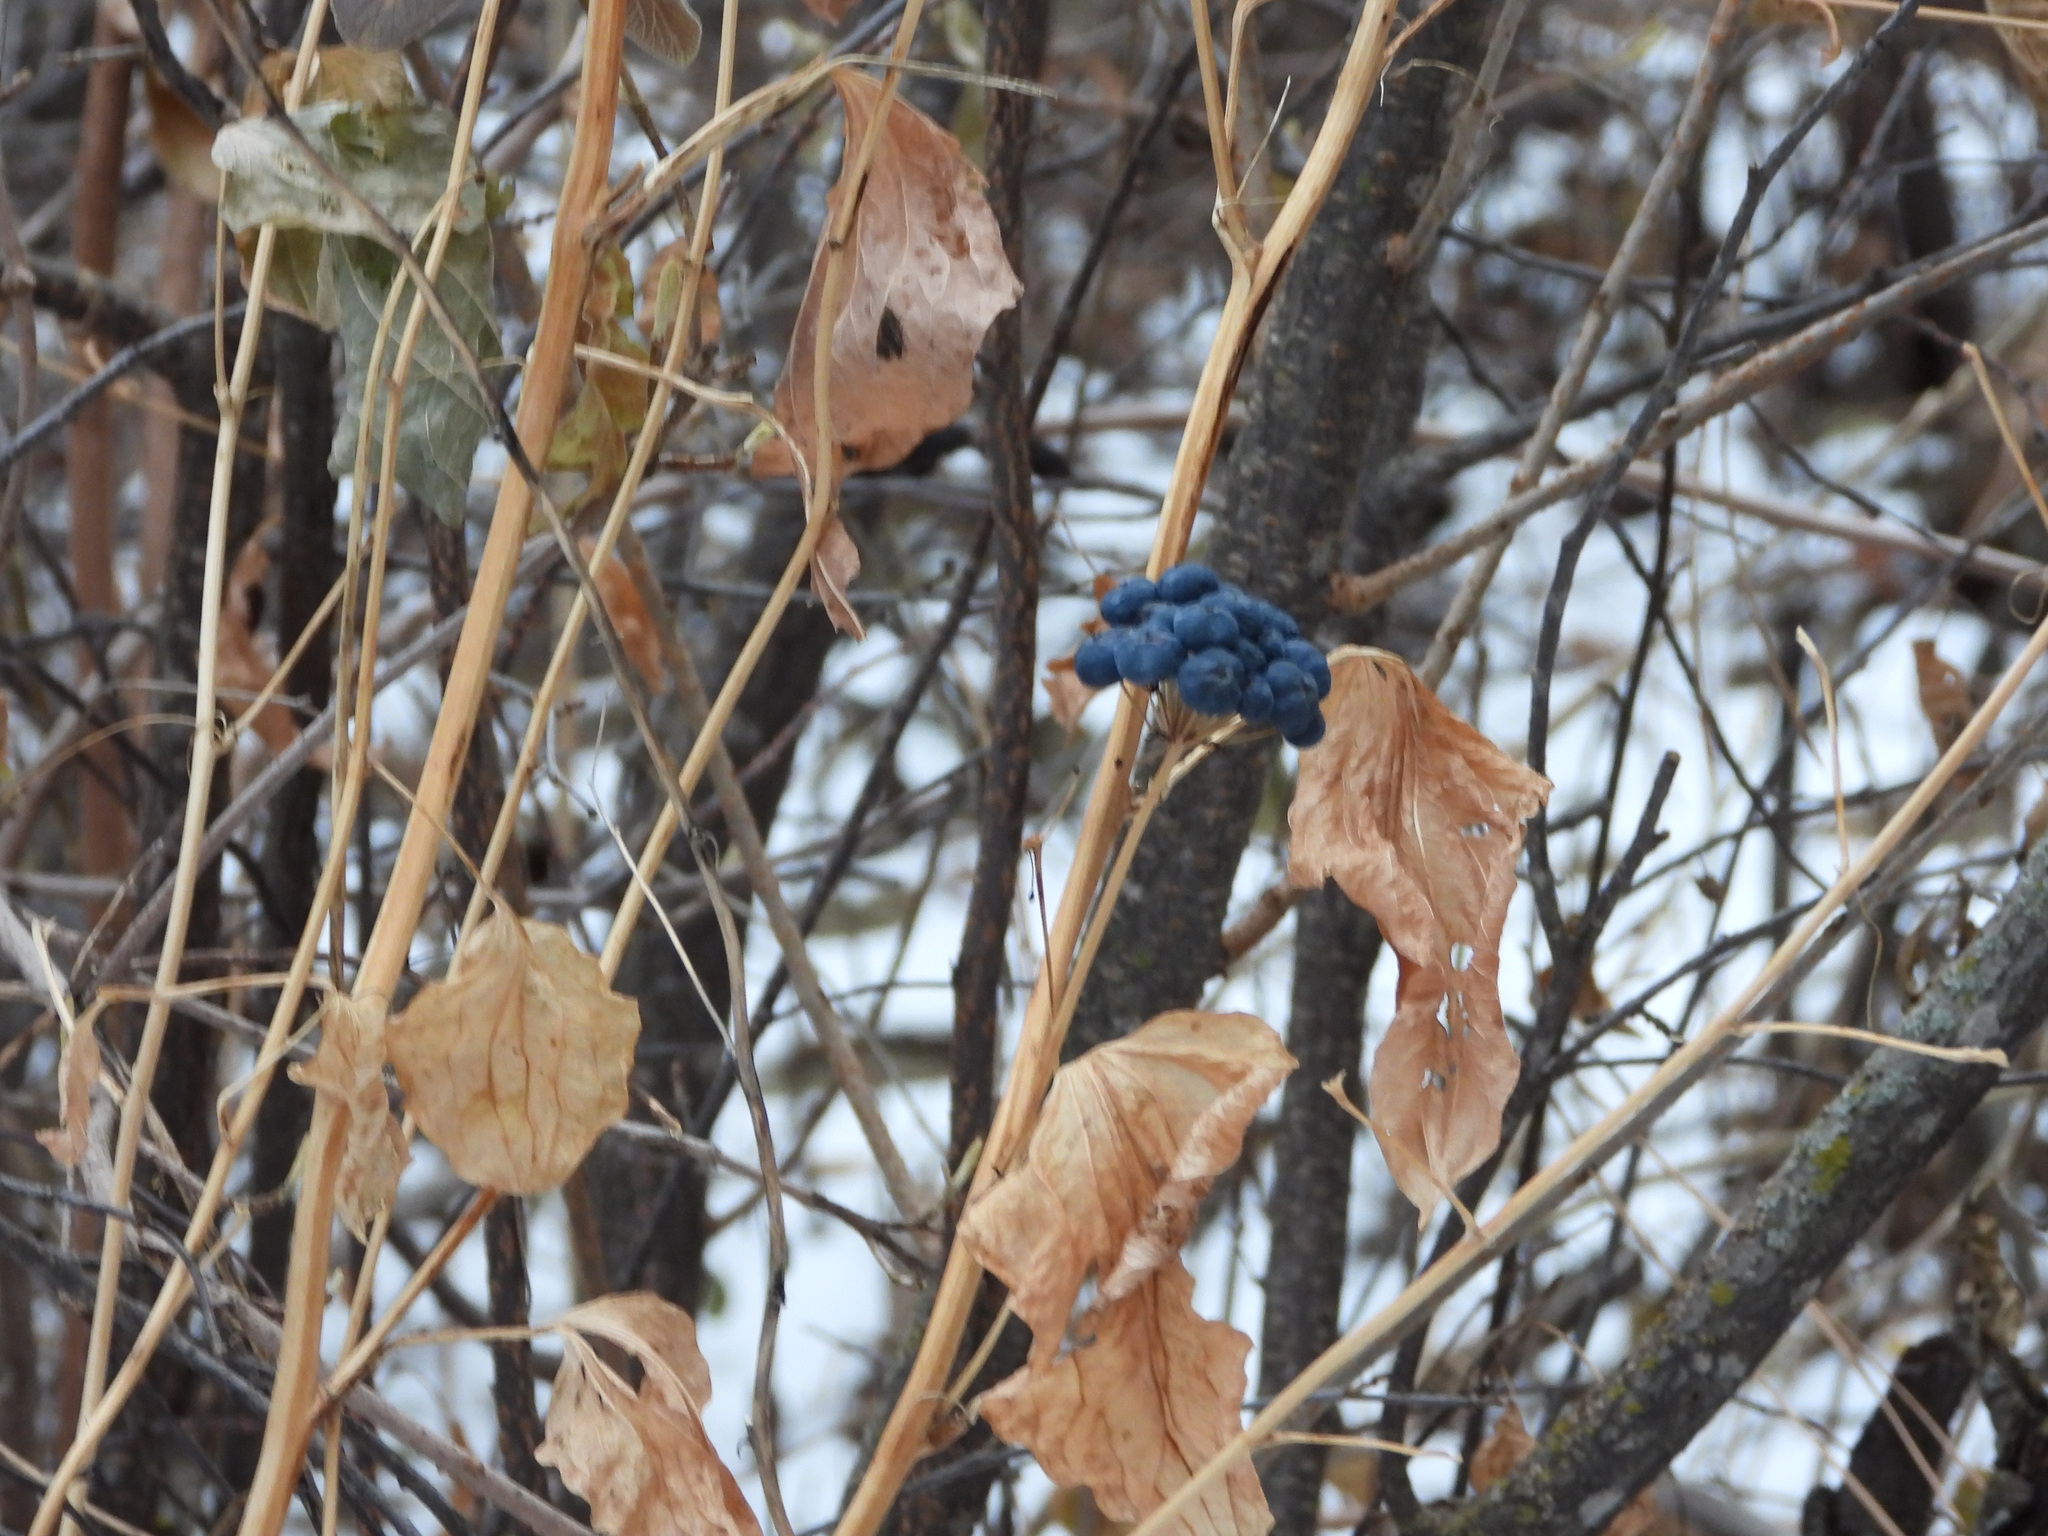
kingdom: Plantae
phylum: Tracheophyta
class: Liliopsida
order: Liliales
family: Smilacaceae
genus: Smilax
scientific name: Smilax lasioneura
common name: Blue ridge carrionflower
